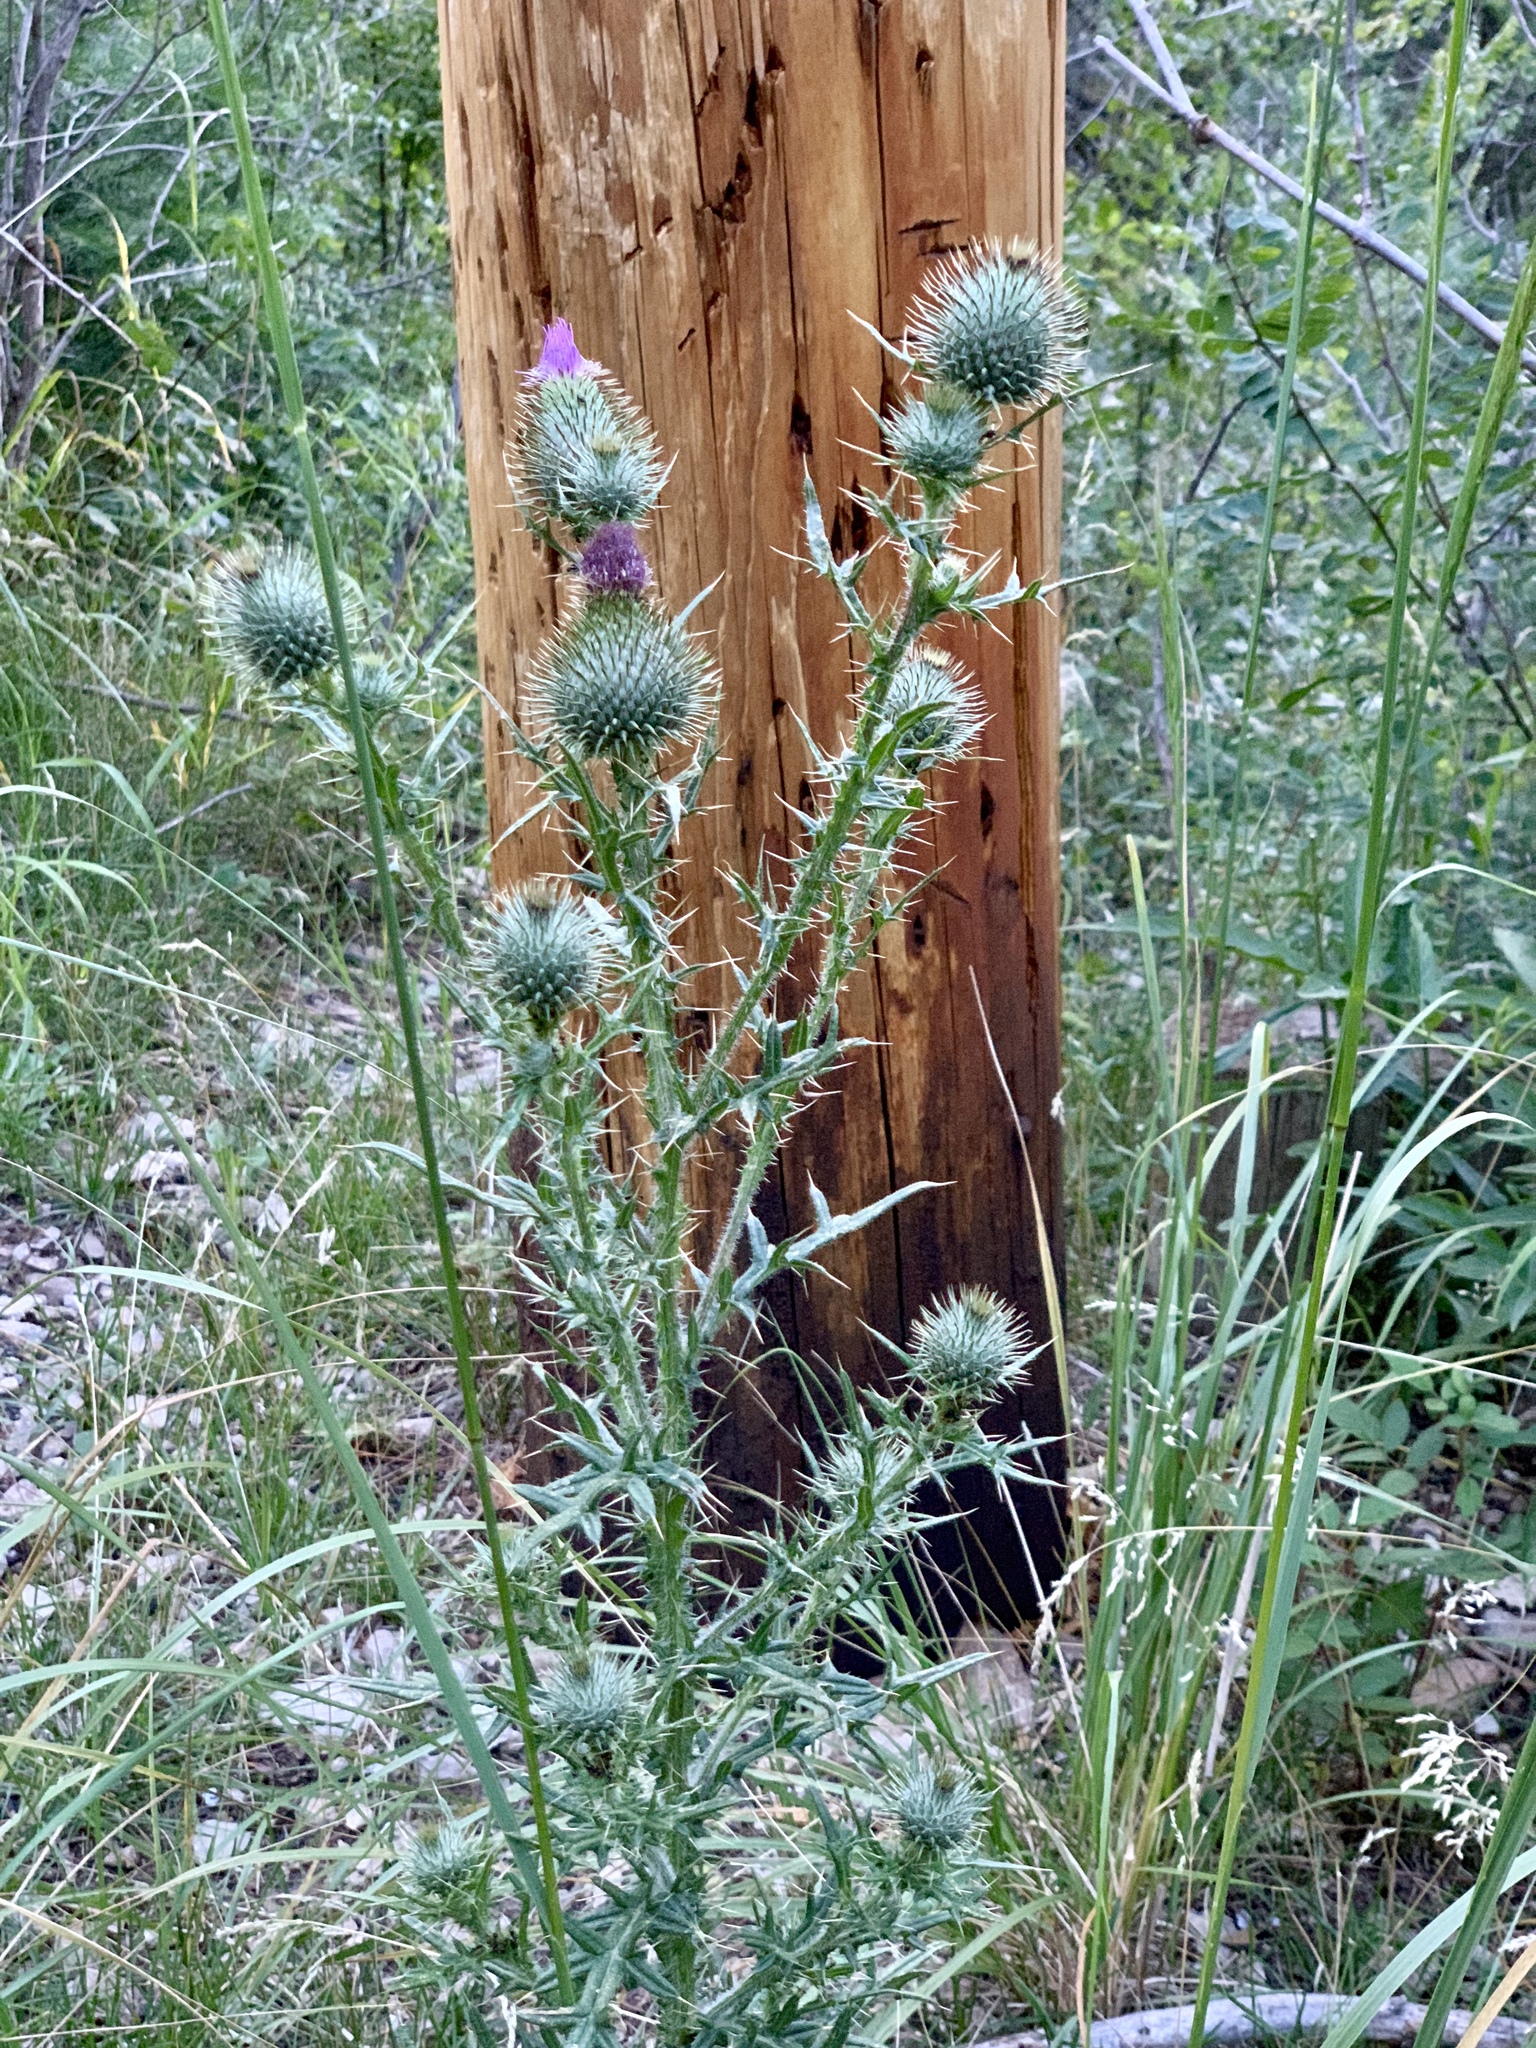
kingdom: Plantae
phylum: Tracheophyta
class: Magnoliopsida
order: Asterales
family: Asteraceae
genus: Cirsium
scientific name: Cirsium vulgare
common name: Bull thistle
